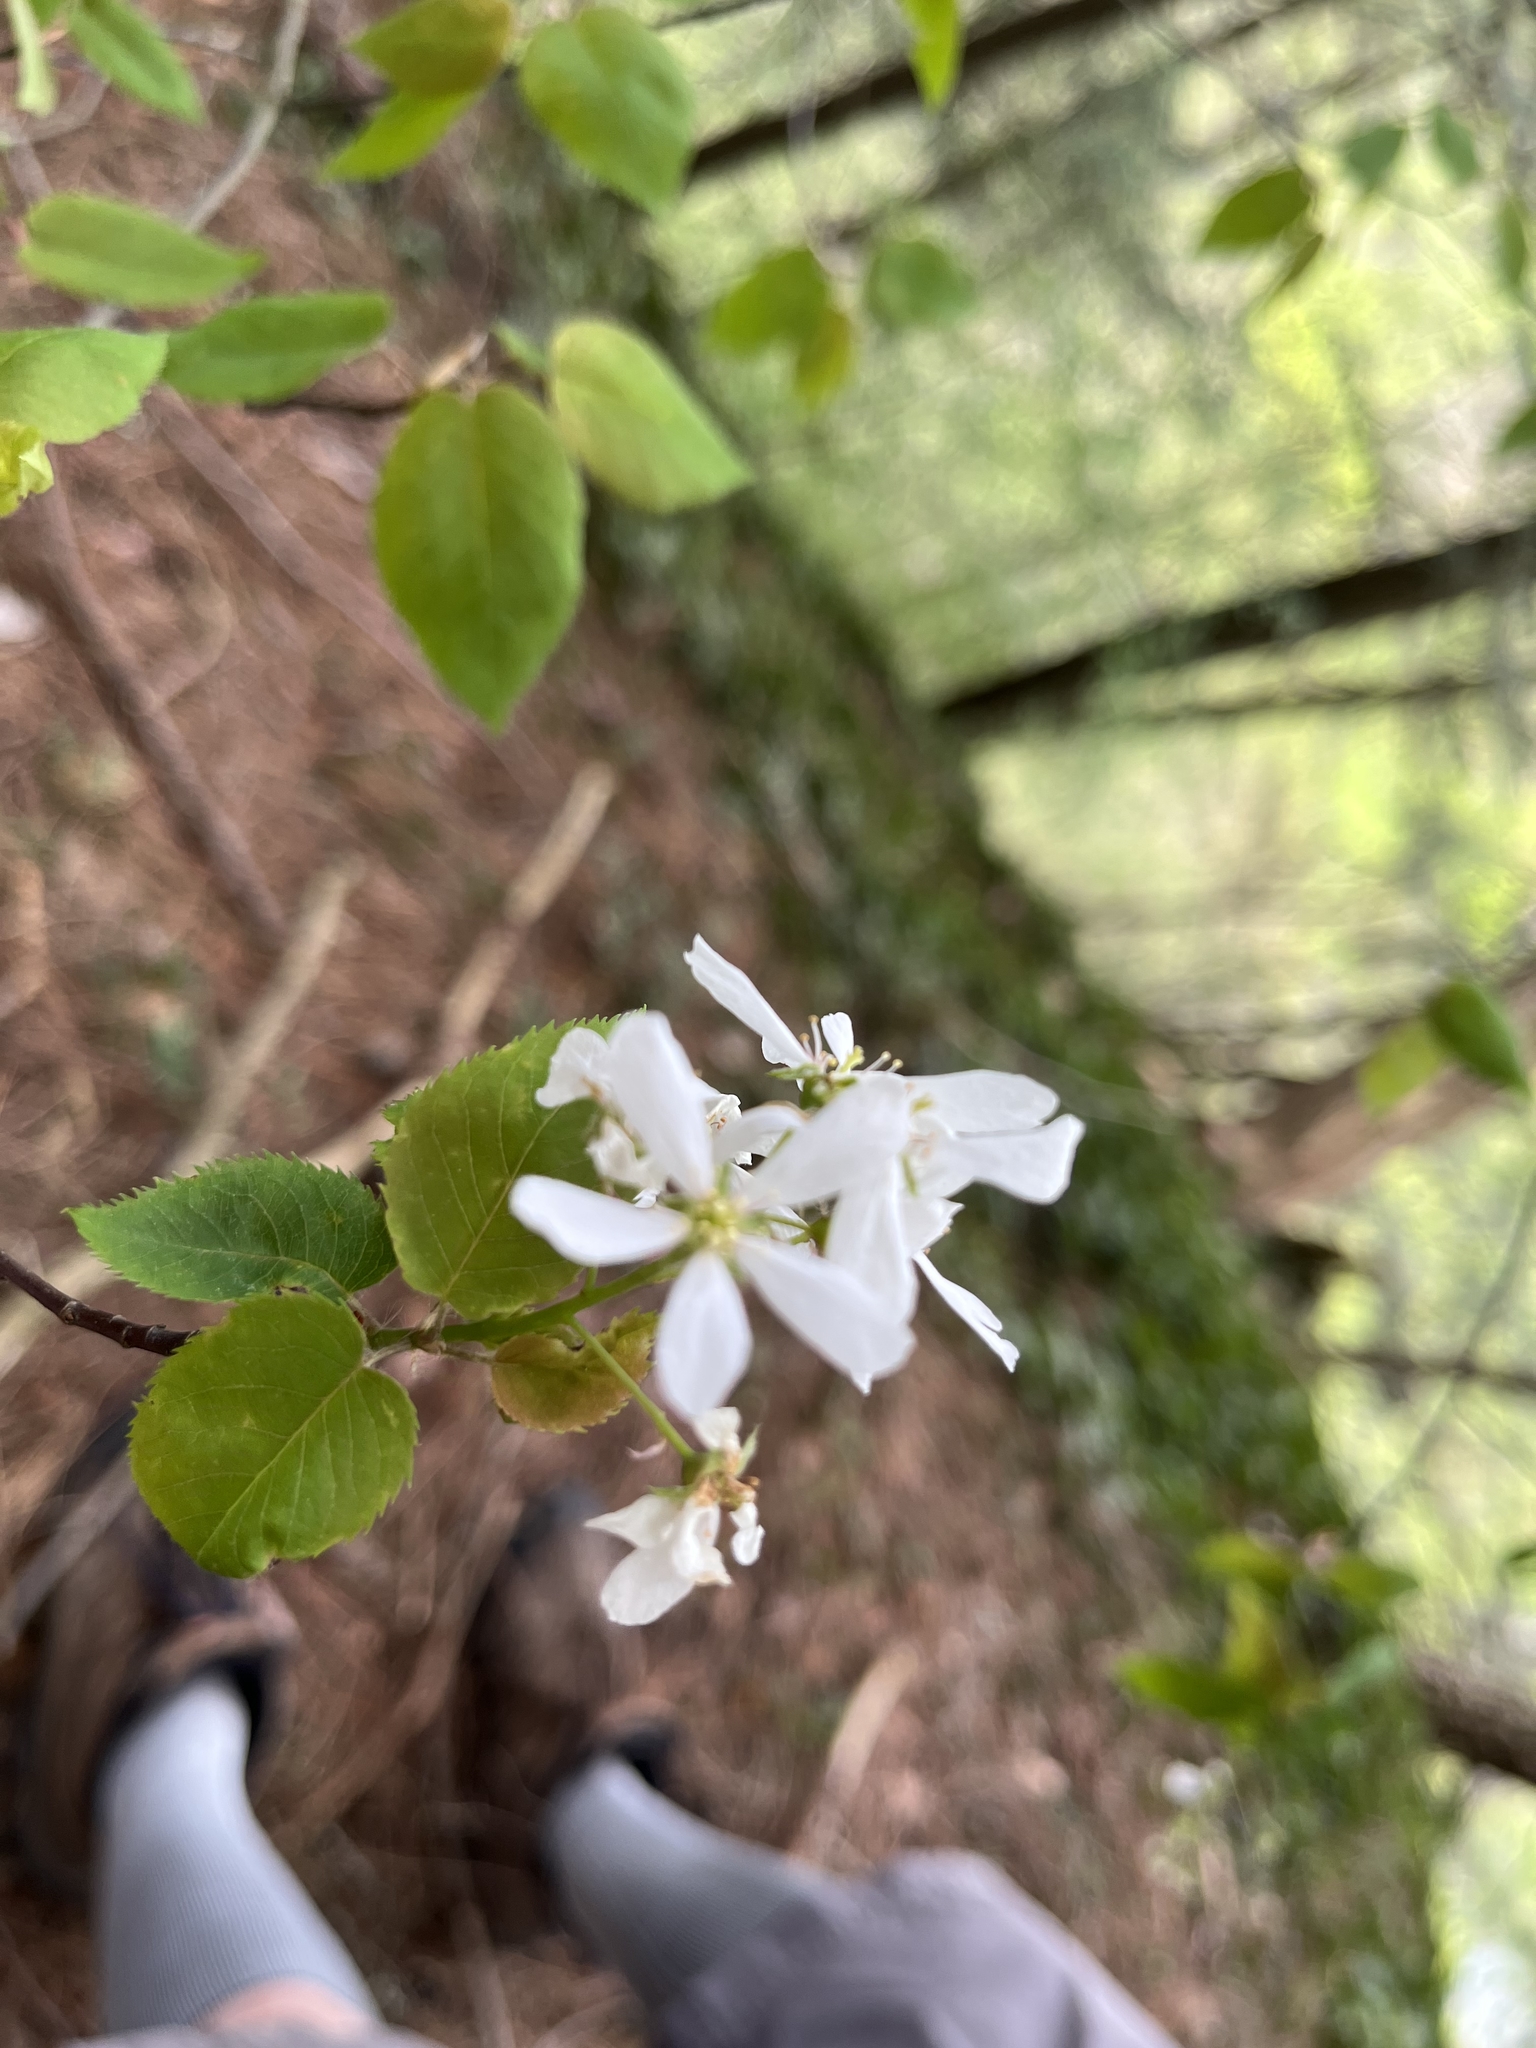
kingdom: Plantae
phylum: Tracheophyta
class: Magnoliopsida
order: Rosales
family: Rosaceae
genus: Amelanchier
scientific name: Amelanchier
